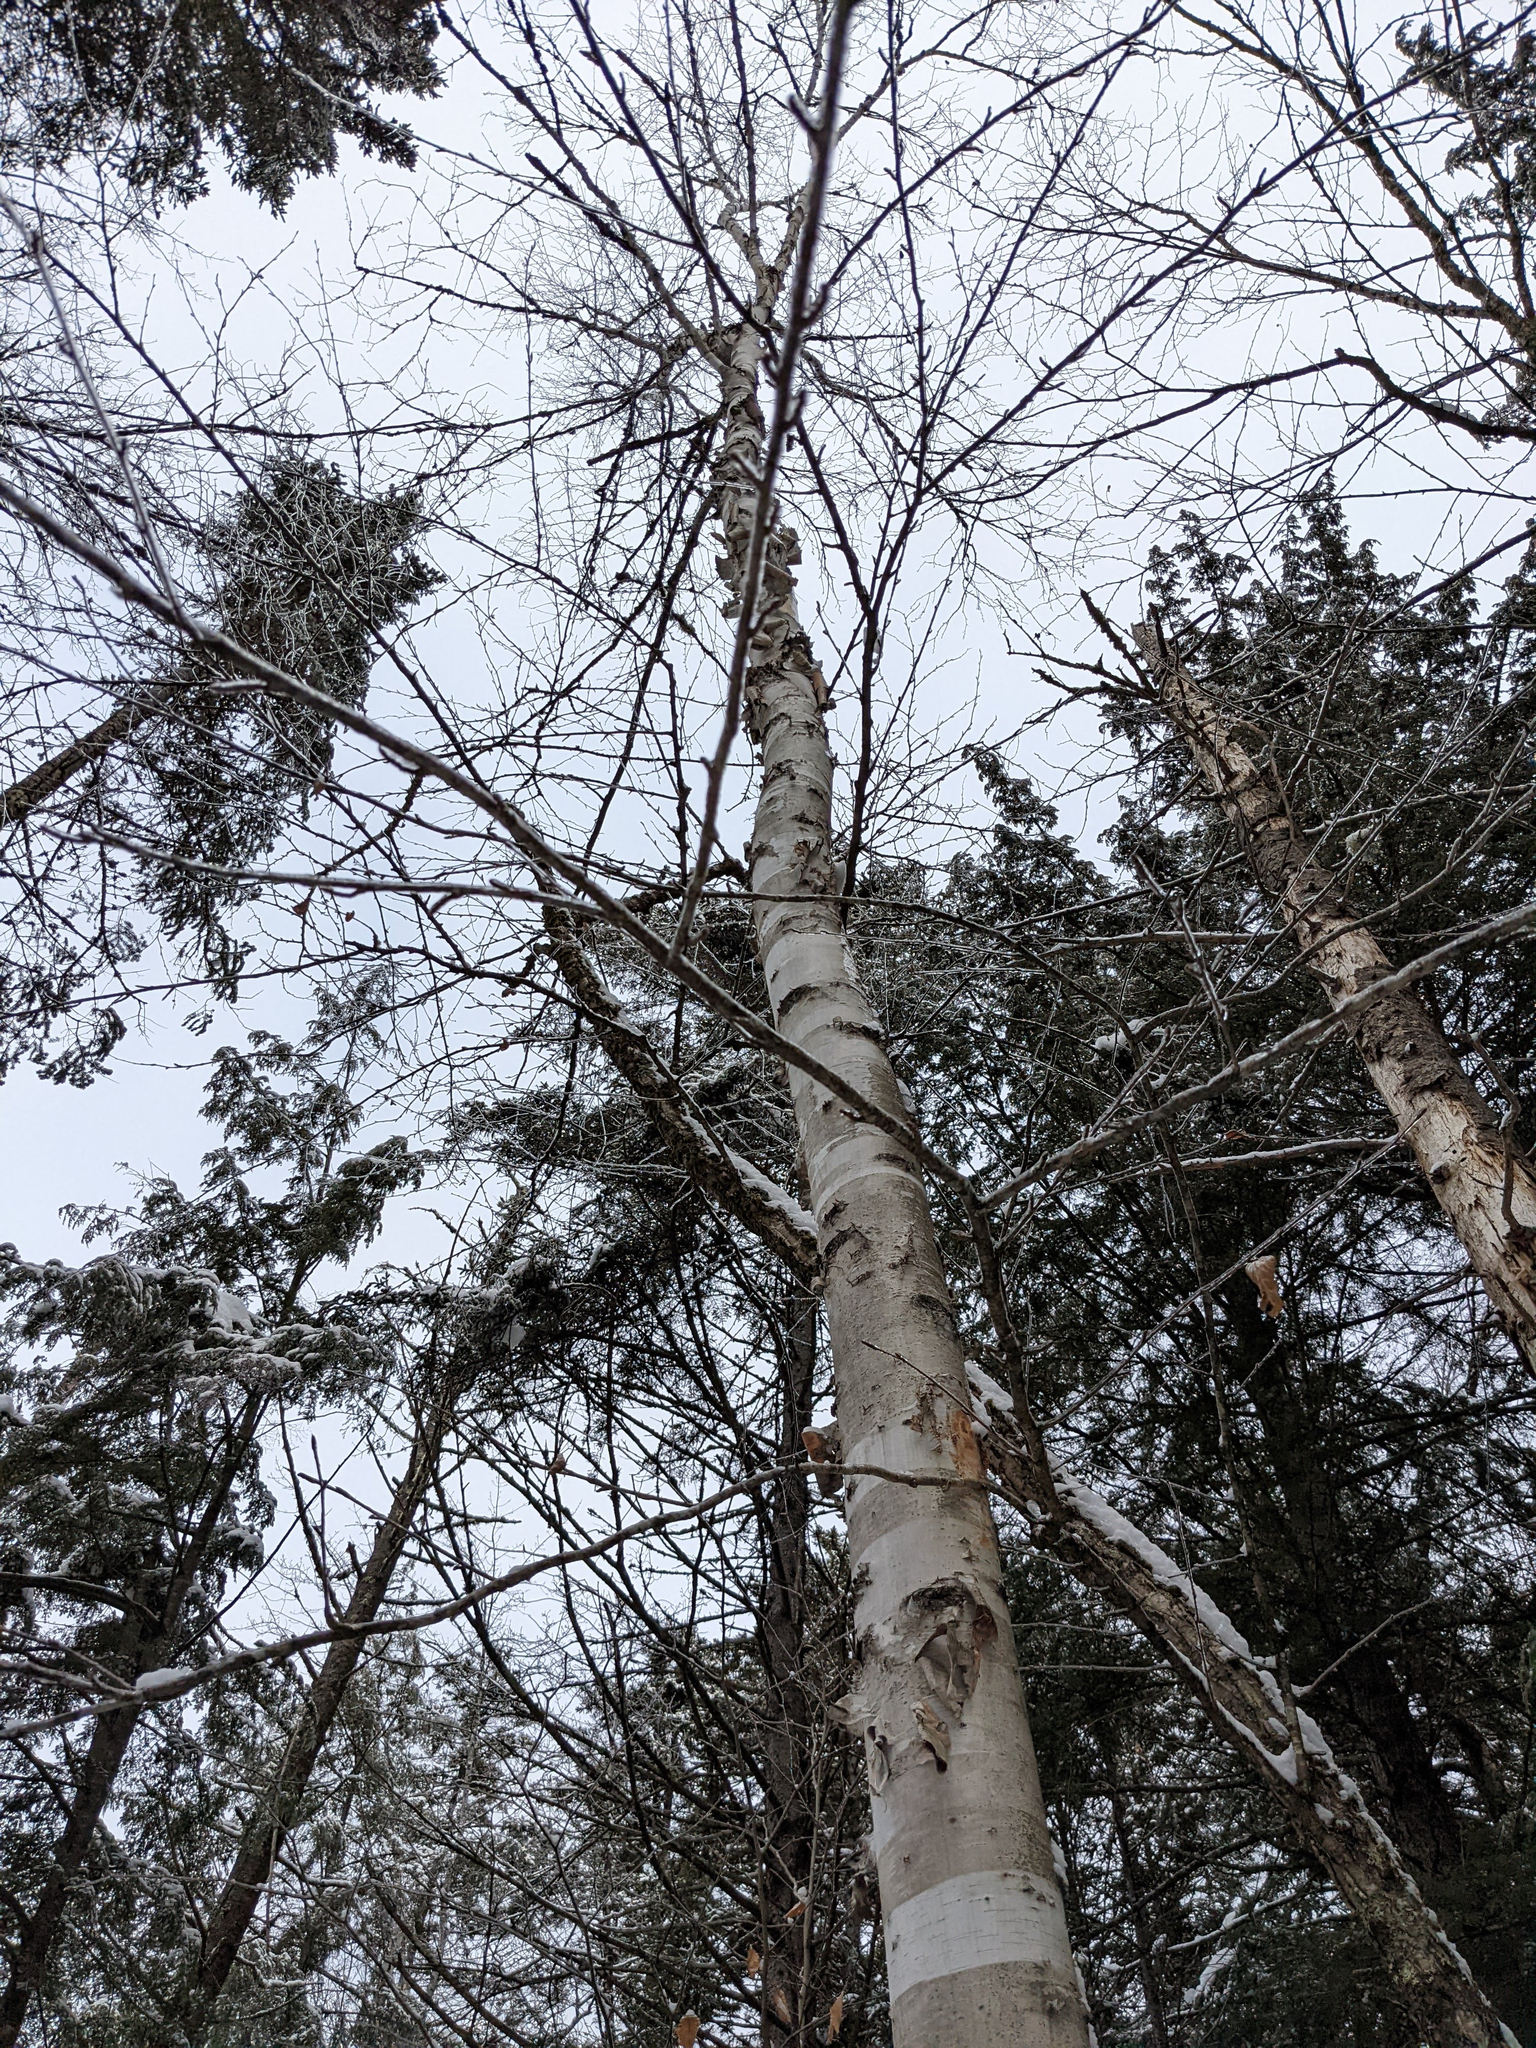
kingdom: Plantae
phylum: Tracheophyta
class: Magnoliopsida
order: Fagales
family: Betulaceae
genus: Betula
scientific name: Betula papyrifera
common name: Paper birch
